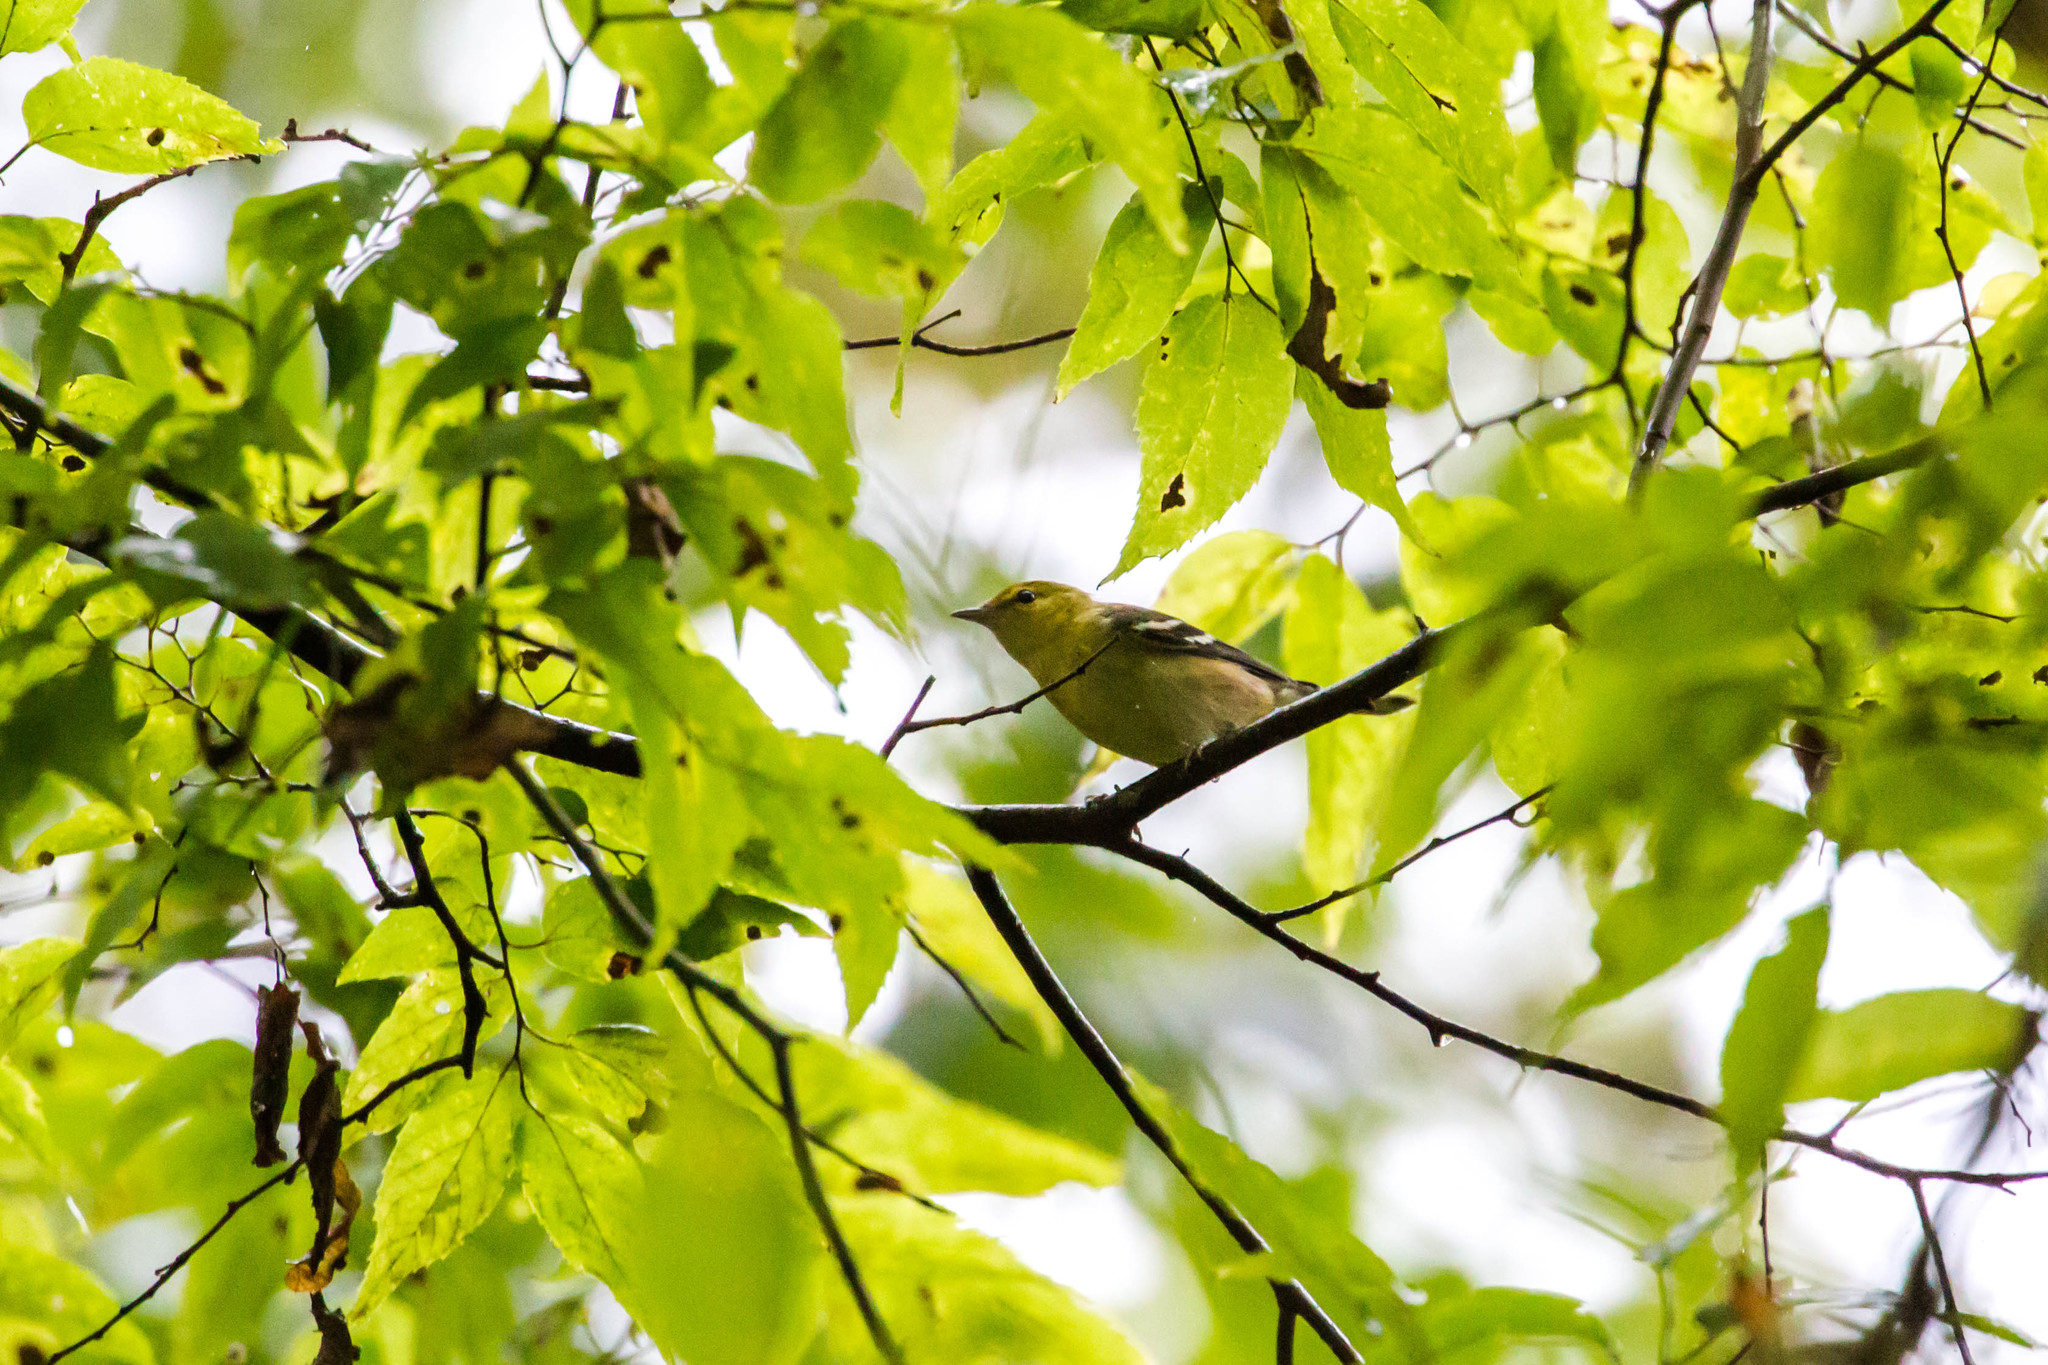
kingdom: Animalia
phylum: Chordata
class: Aves
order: Passeriformes
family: Parulidae
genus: Setophaga
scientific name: Setophaga castanea
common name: Bay-breasted warbler
